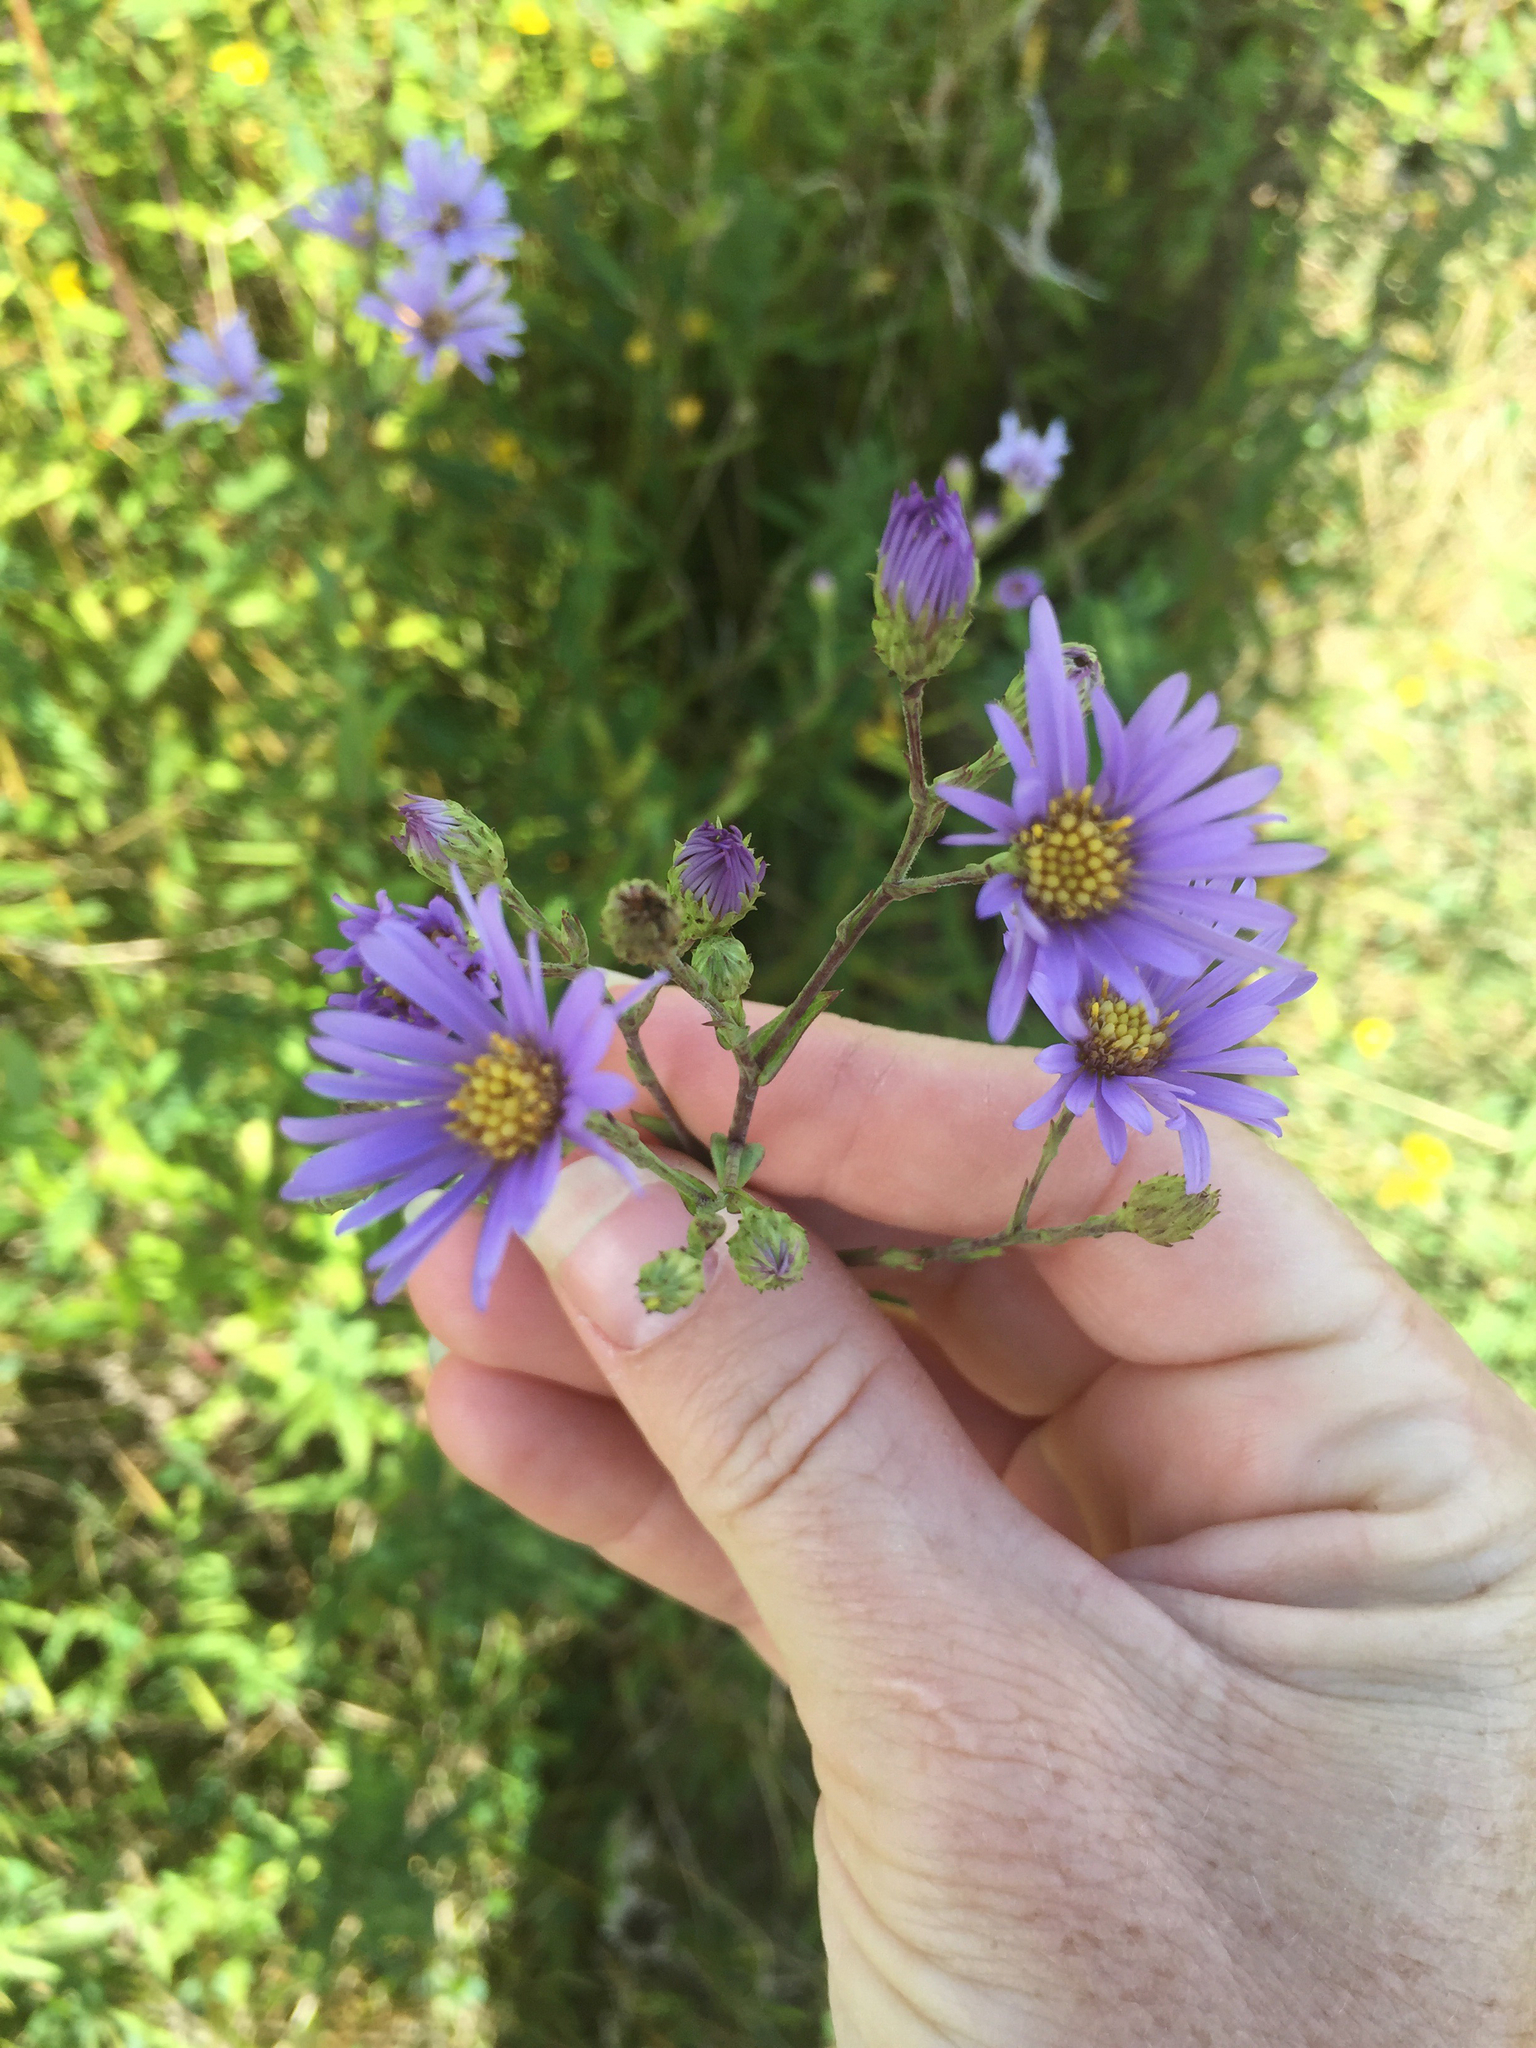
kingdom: Plantae
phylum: Tracheophyta
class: Magnoliopsida
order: Asterales
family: Asteraceae
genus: Symphyotrichum
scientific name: Symphyotrichum laeve
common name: Glaucous aster
